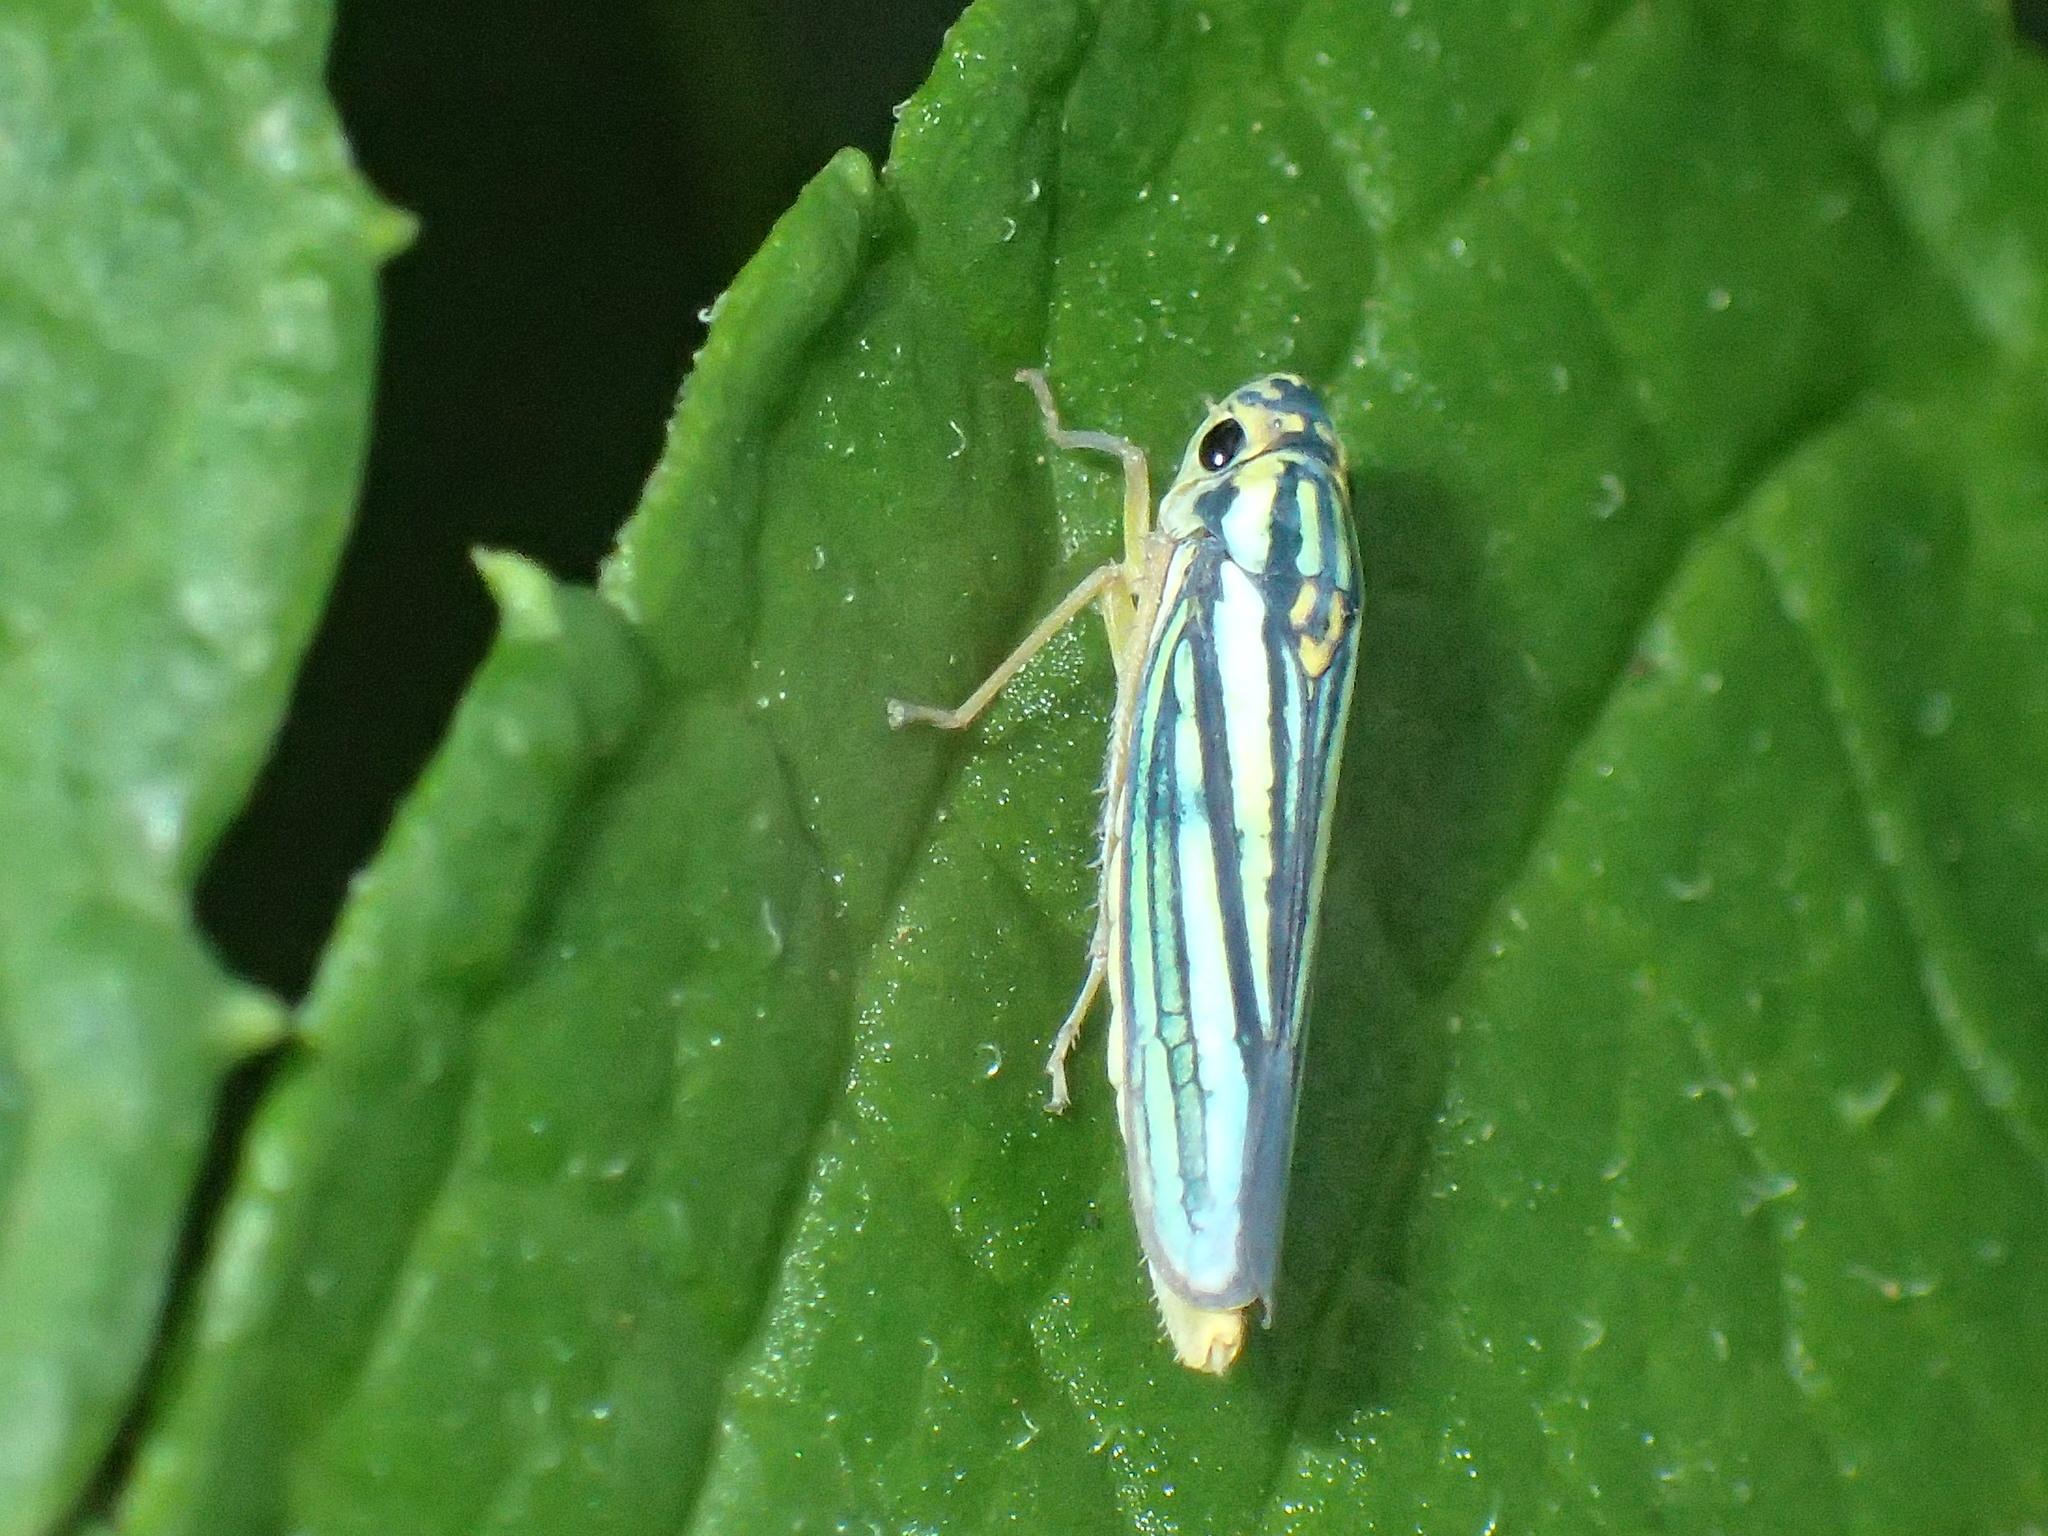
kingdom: Animalia
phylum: Arthropoda
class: Insecta
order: Hemiptera
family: Cicadellidae
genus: Tettigoniella
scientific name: Tettigoniella cosmopolita
